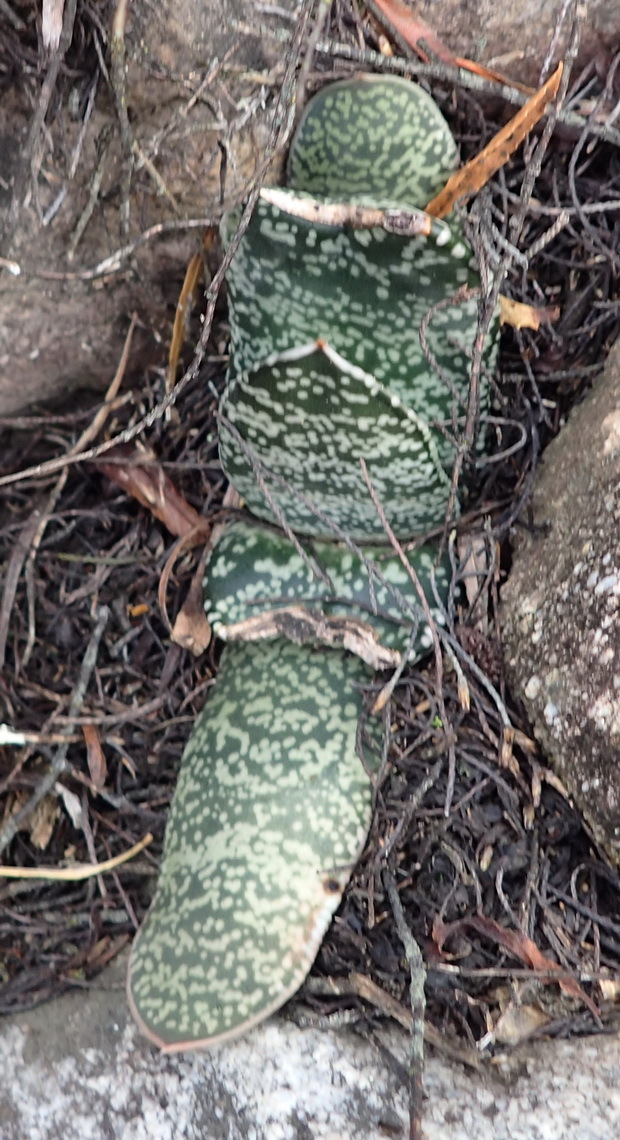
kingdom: Plantae
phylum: Tracheophyta
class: Liliopsida
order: Asparagales
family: Asphodelaceae
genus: Gasteria
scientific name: Gasteria brachyphylla
